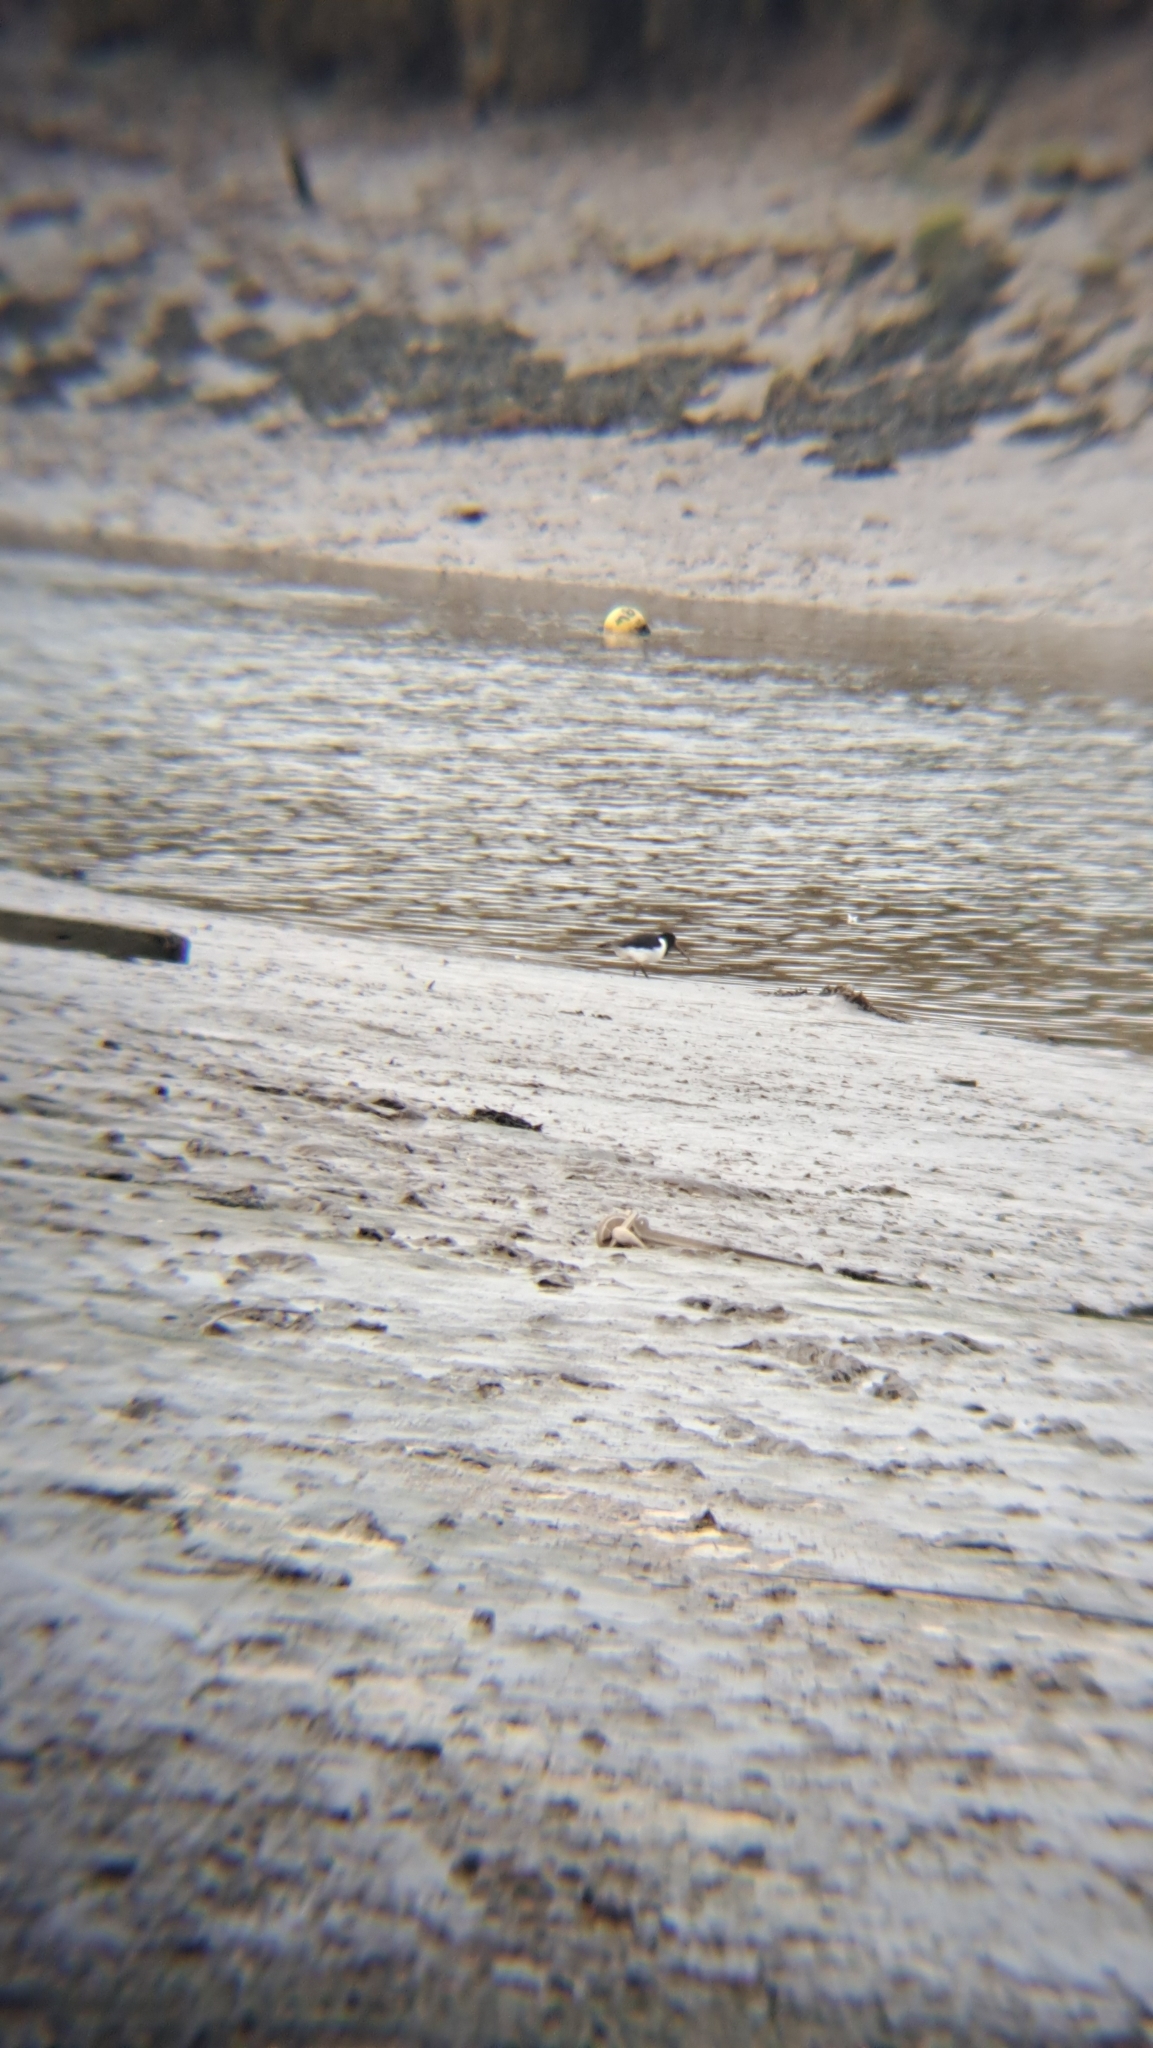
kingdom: Animalia
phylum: Chordata
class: Aves
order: Charadriiformes
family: Haematopodidae
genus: Haematopus
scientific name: Haematopus ostralegus
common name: Eurasian oystercatcher
